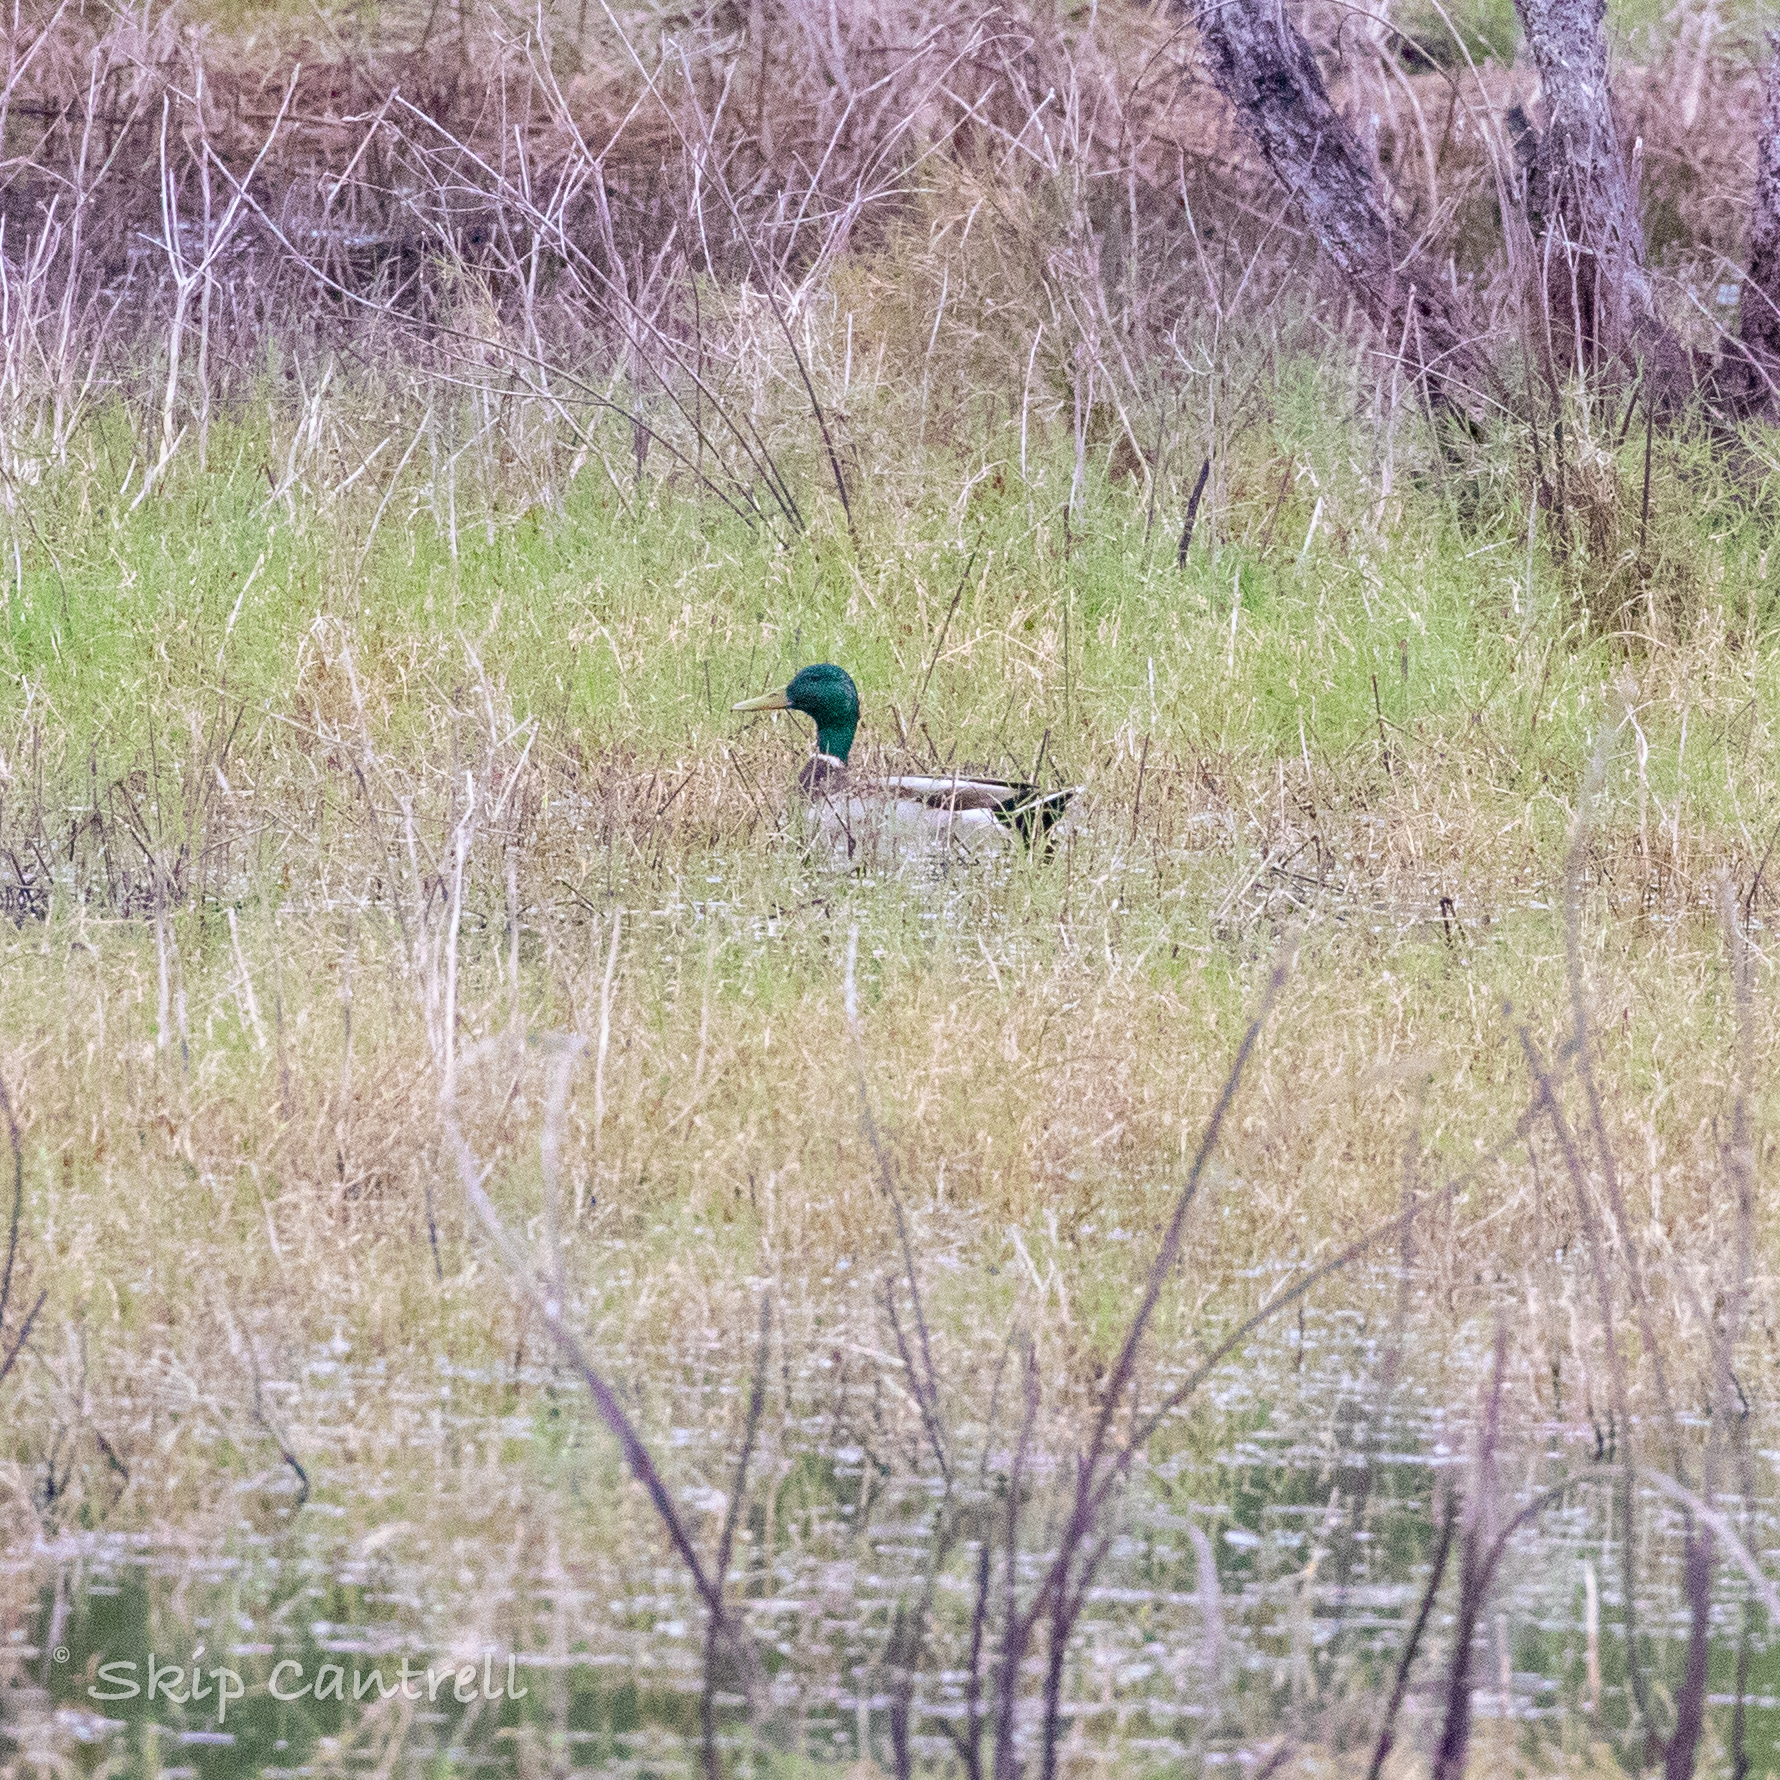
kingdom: Animalia
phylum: Chordata
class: Aves
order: Anseriformes
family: Anatidae
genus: Anas
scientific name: Anas platyrhynchos
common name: Mallard
